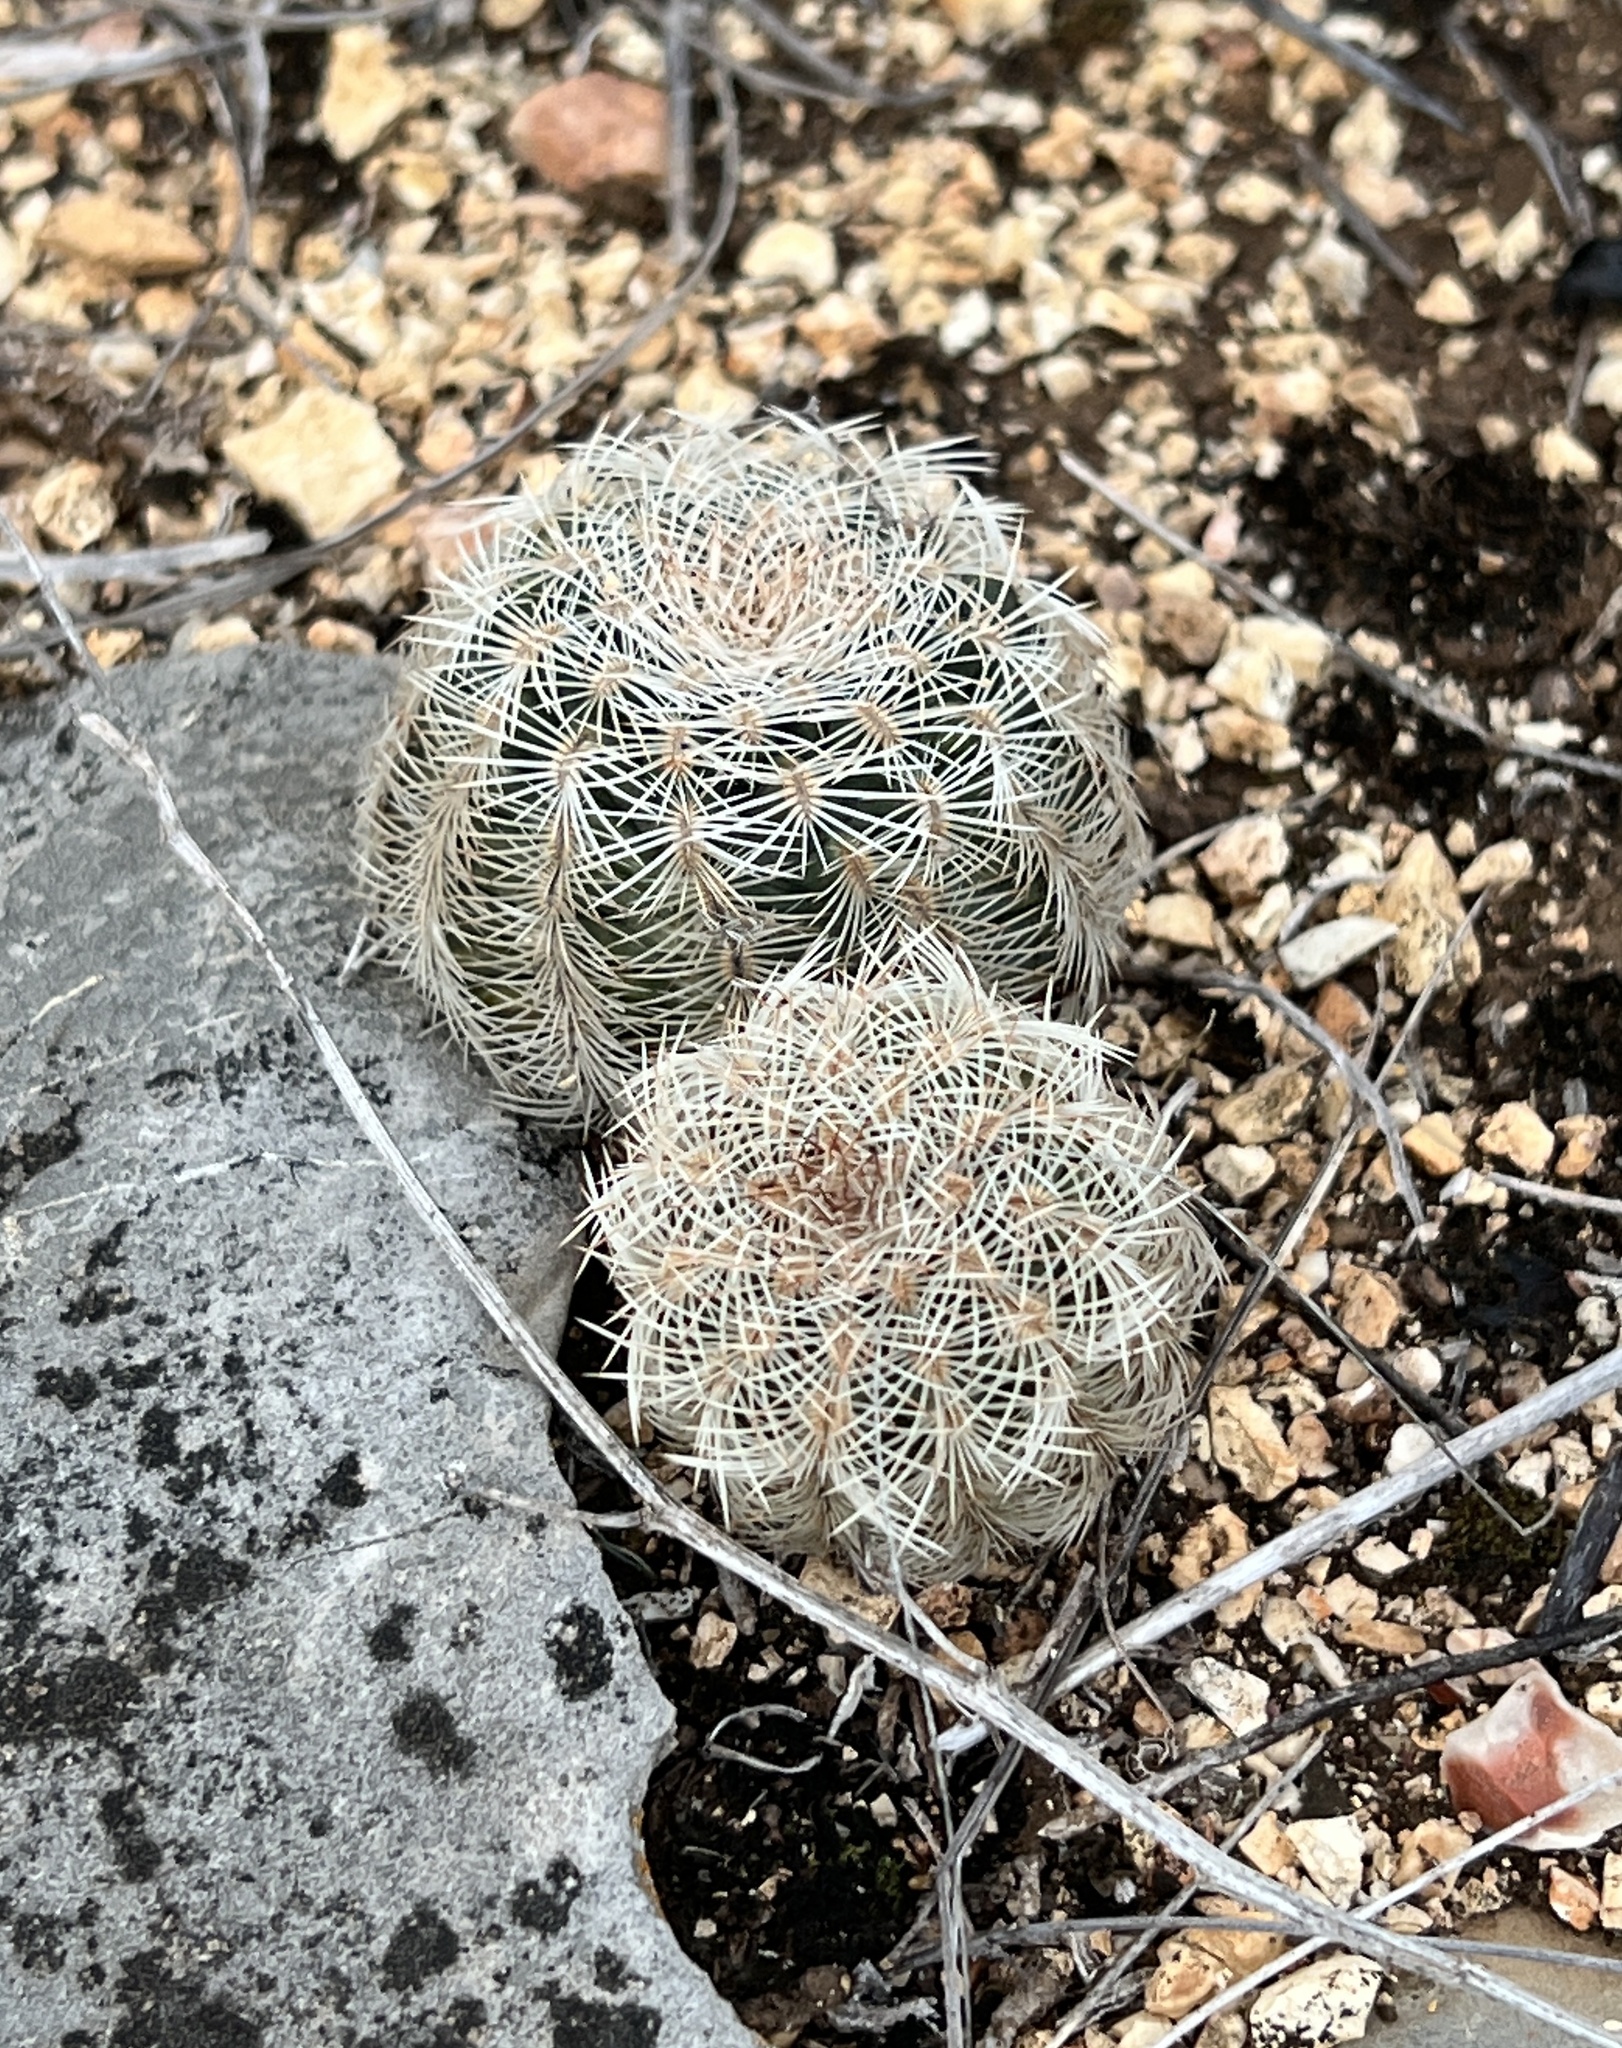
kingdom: Plantae
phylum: Tracheophyta
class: Magnoliopsida
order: Caryophyllales
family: Cactaceae
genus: Echinocereus
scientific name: Echinocereus reichenbachii
